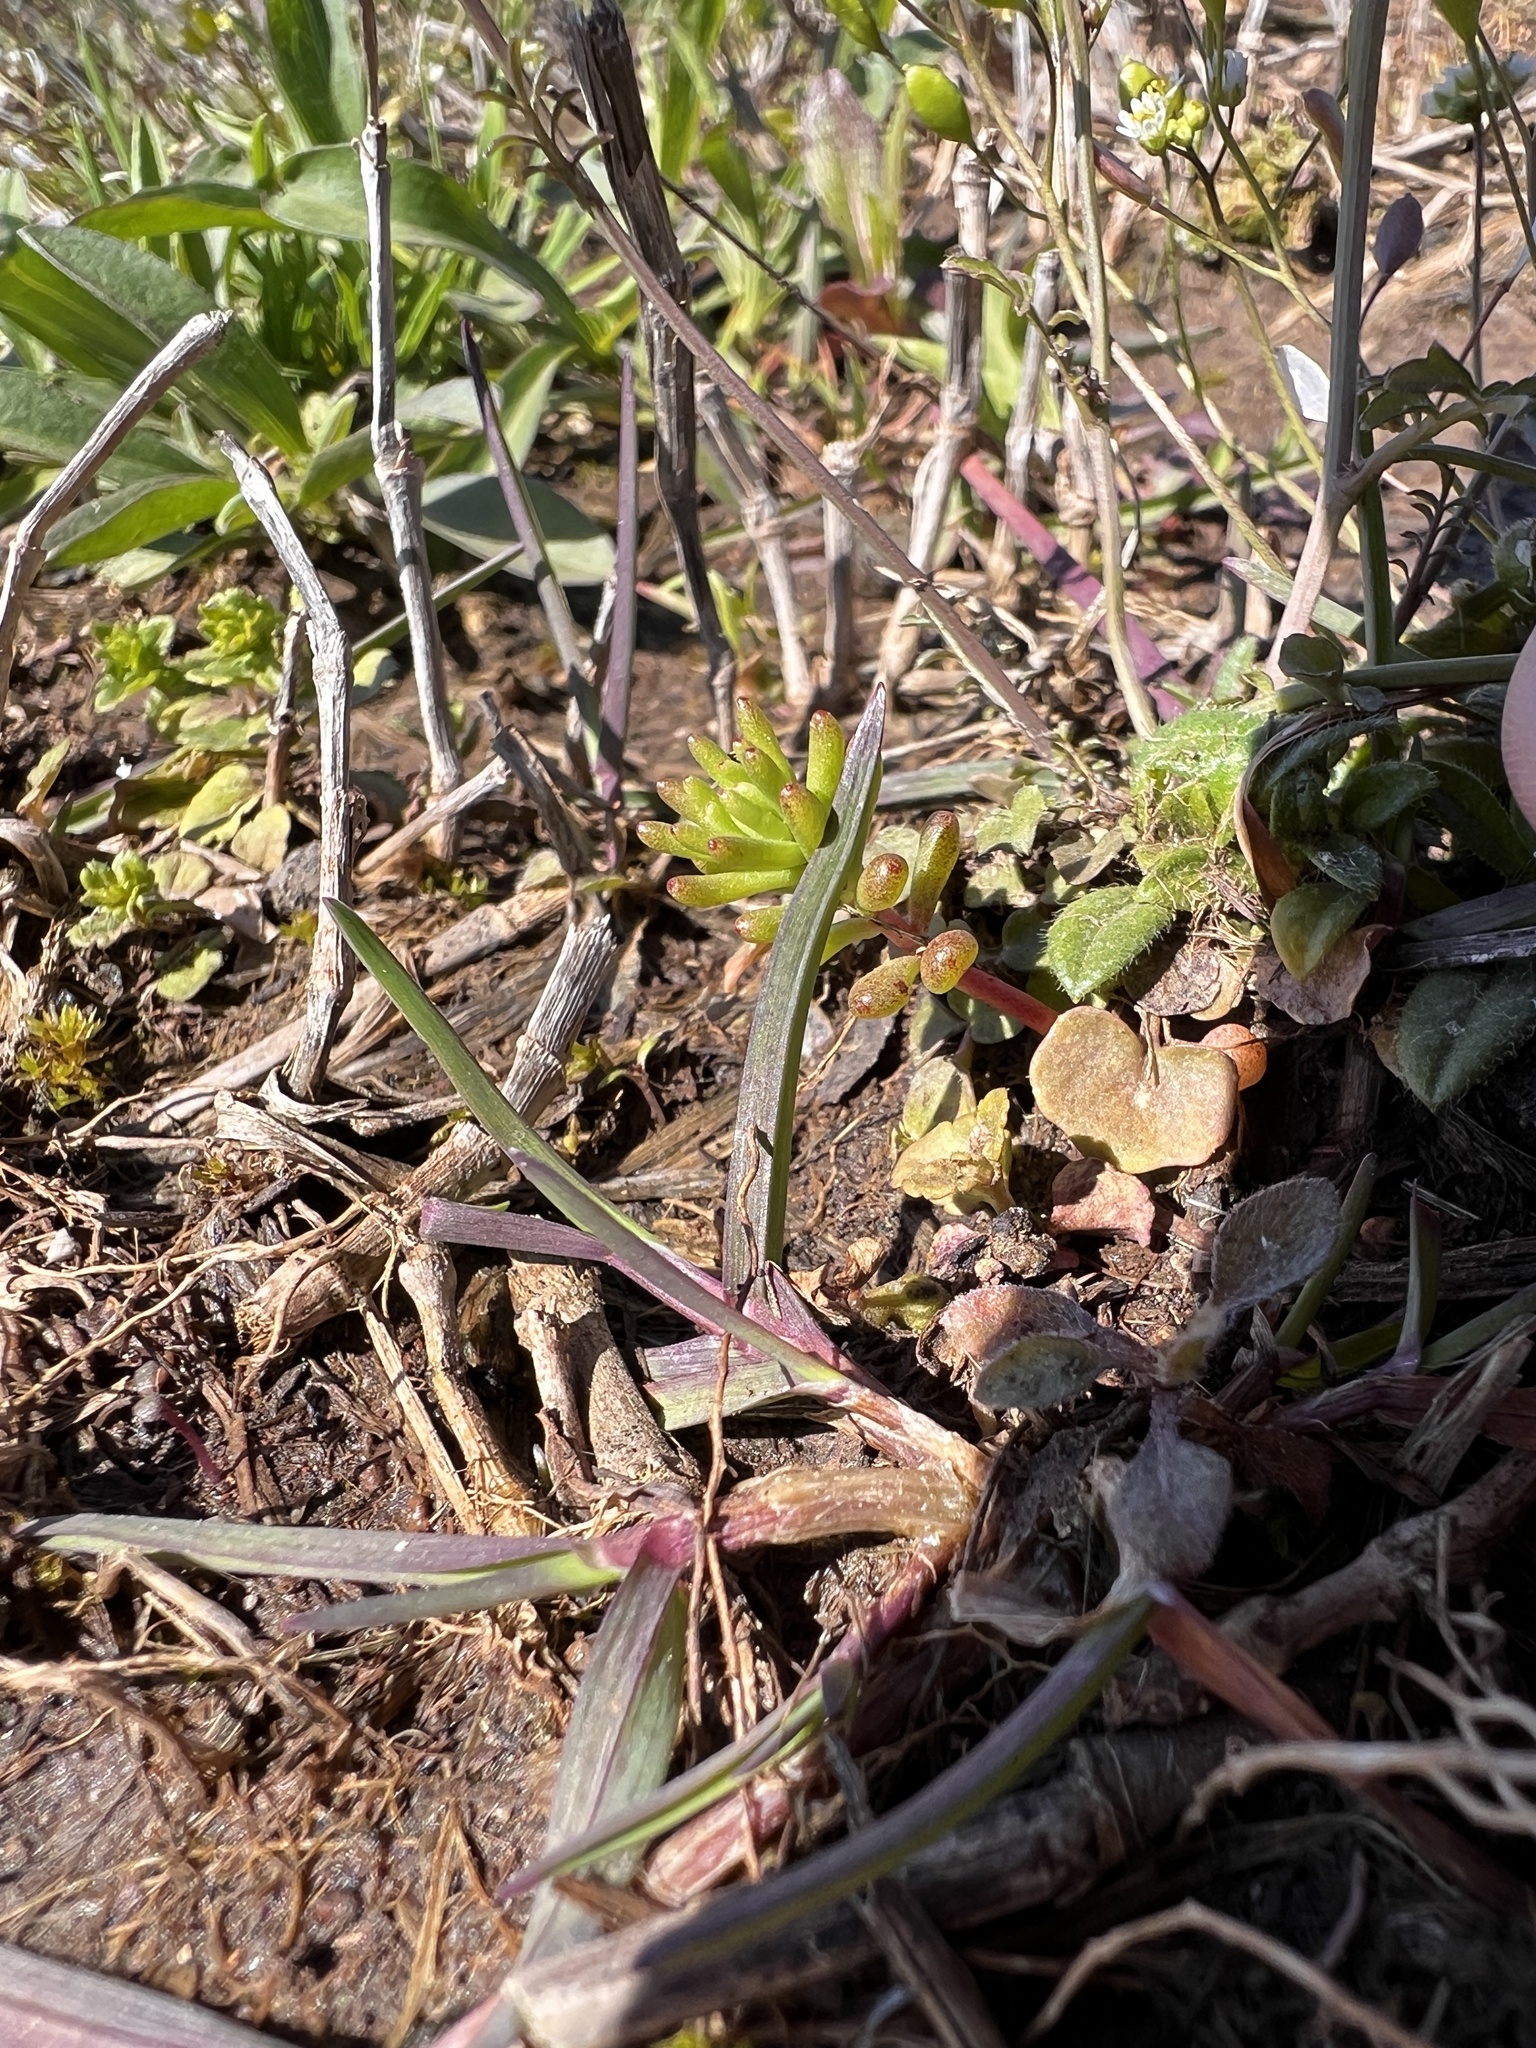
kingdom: Plantae
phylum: Tracheophyta
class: Magnoliopsida
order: Saxifragales
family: Crassulaceae
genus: Sedum
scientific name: Sedum pulchellum
